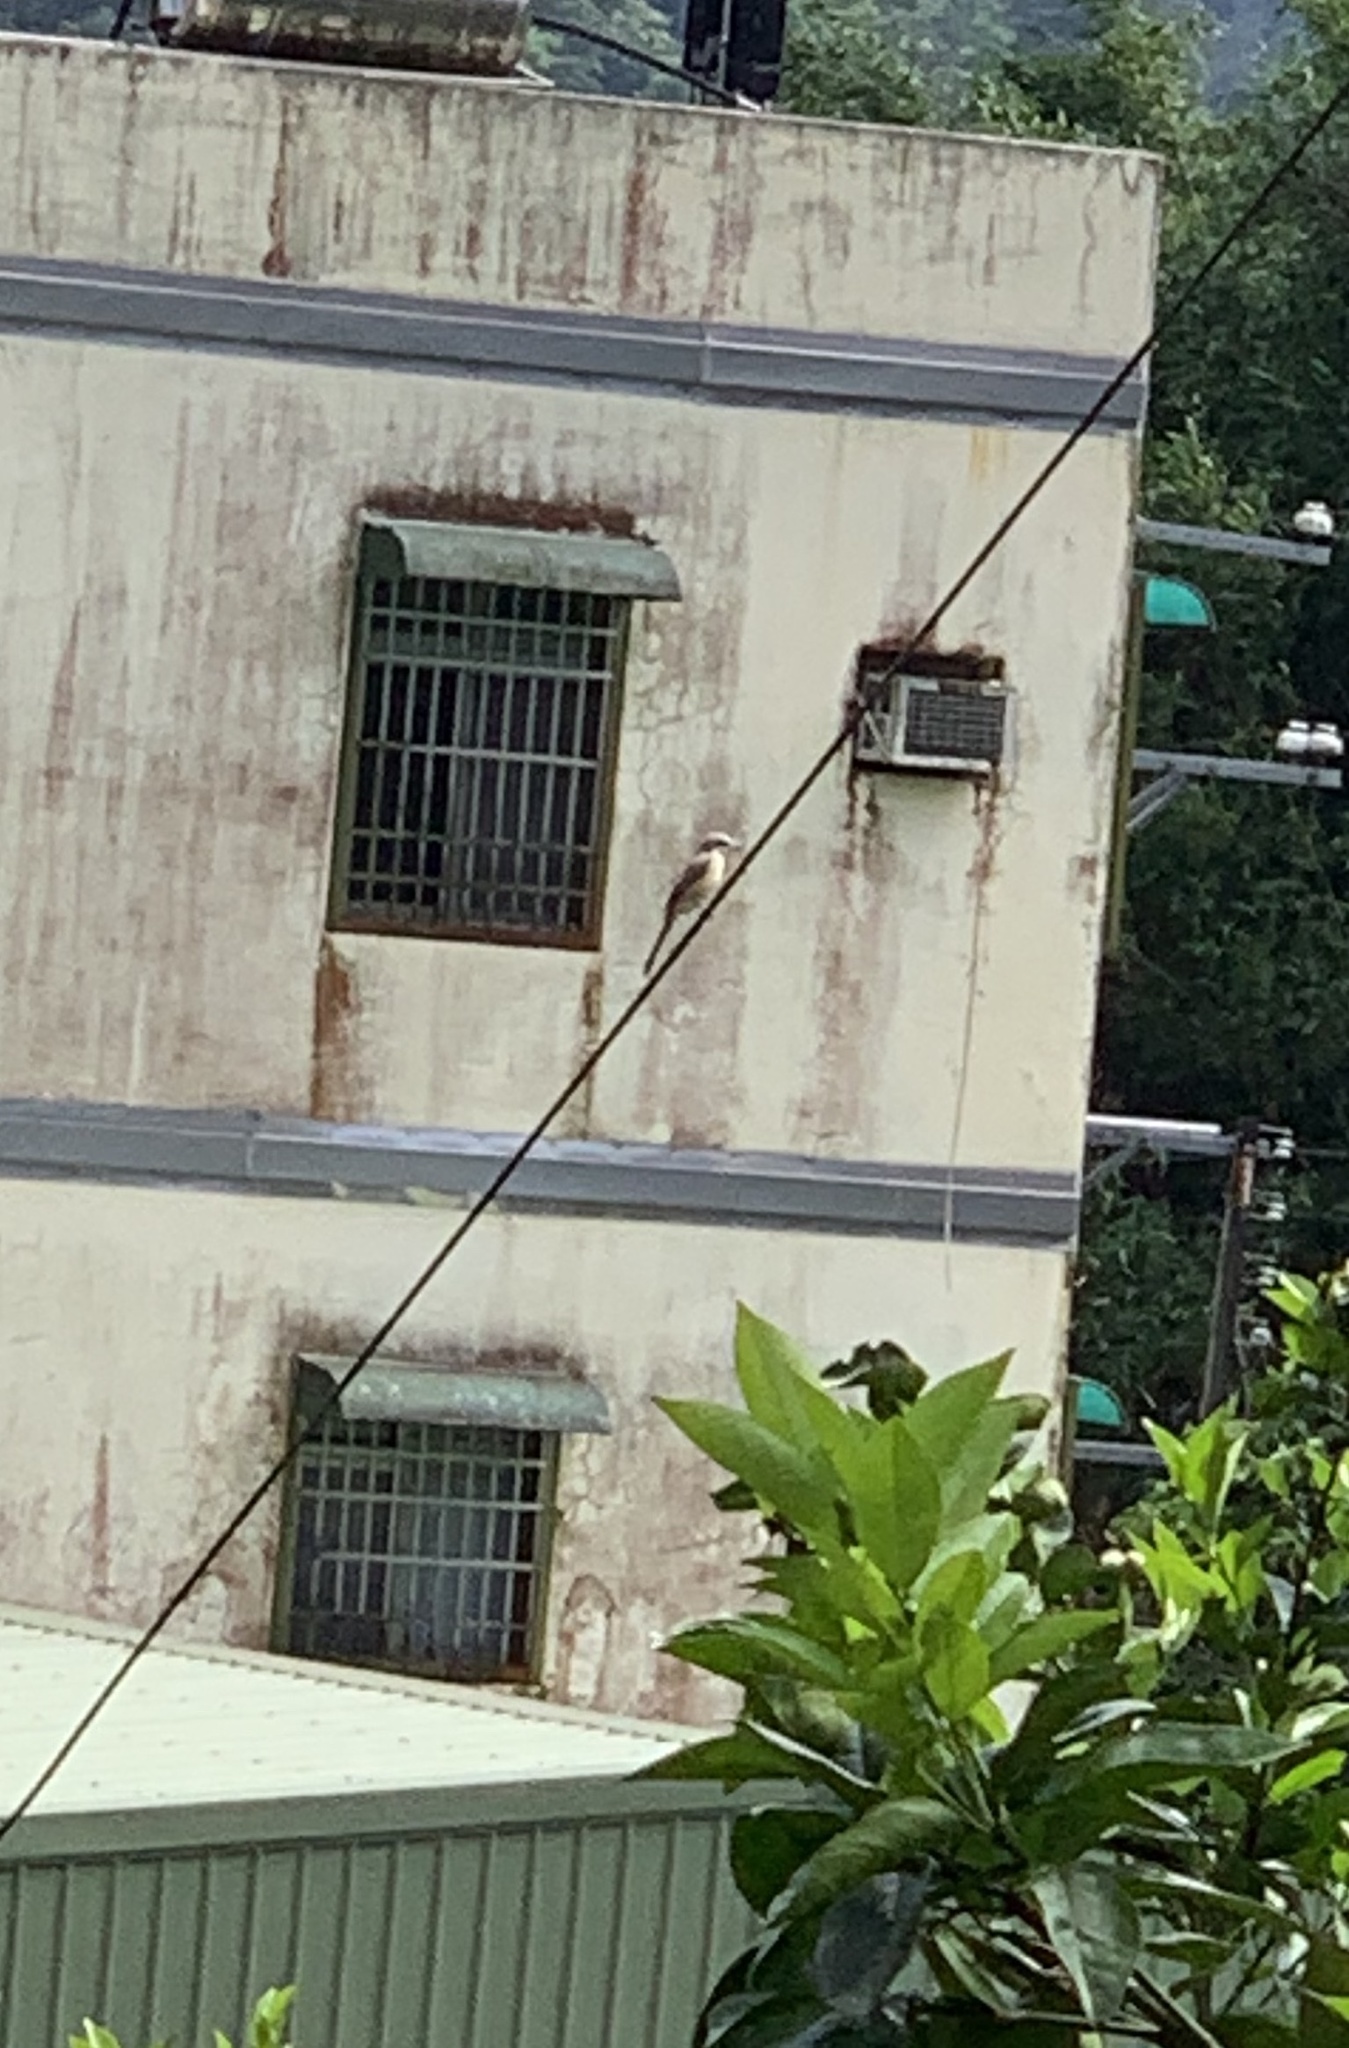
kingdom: Animalia
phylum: Chordata
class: Aves
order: Passeriformes
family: Laniidae
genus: Lanius
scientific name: Lanius cristatus
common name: Brown shrike
